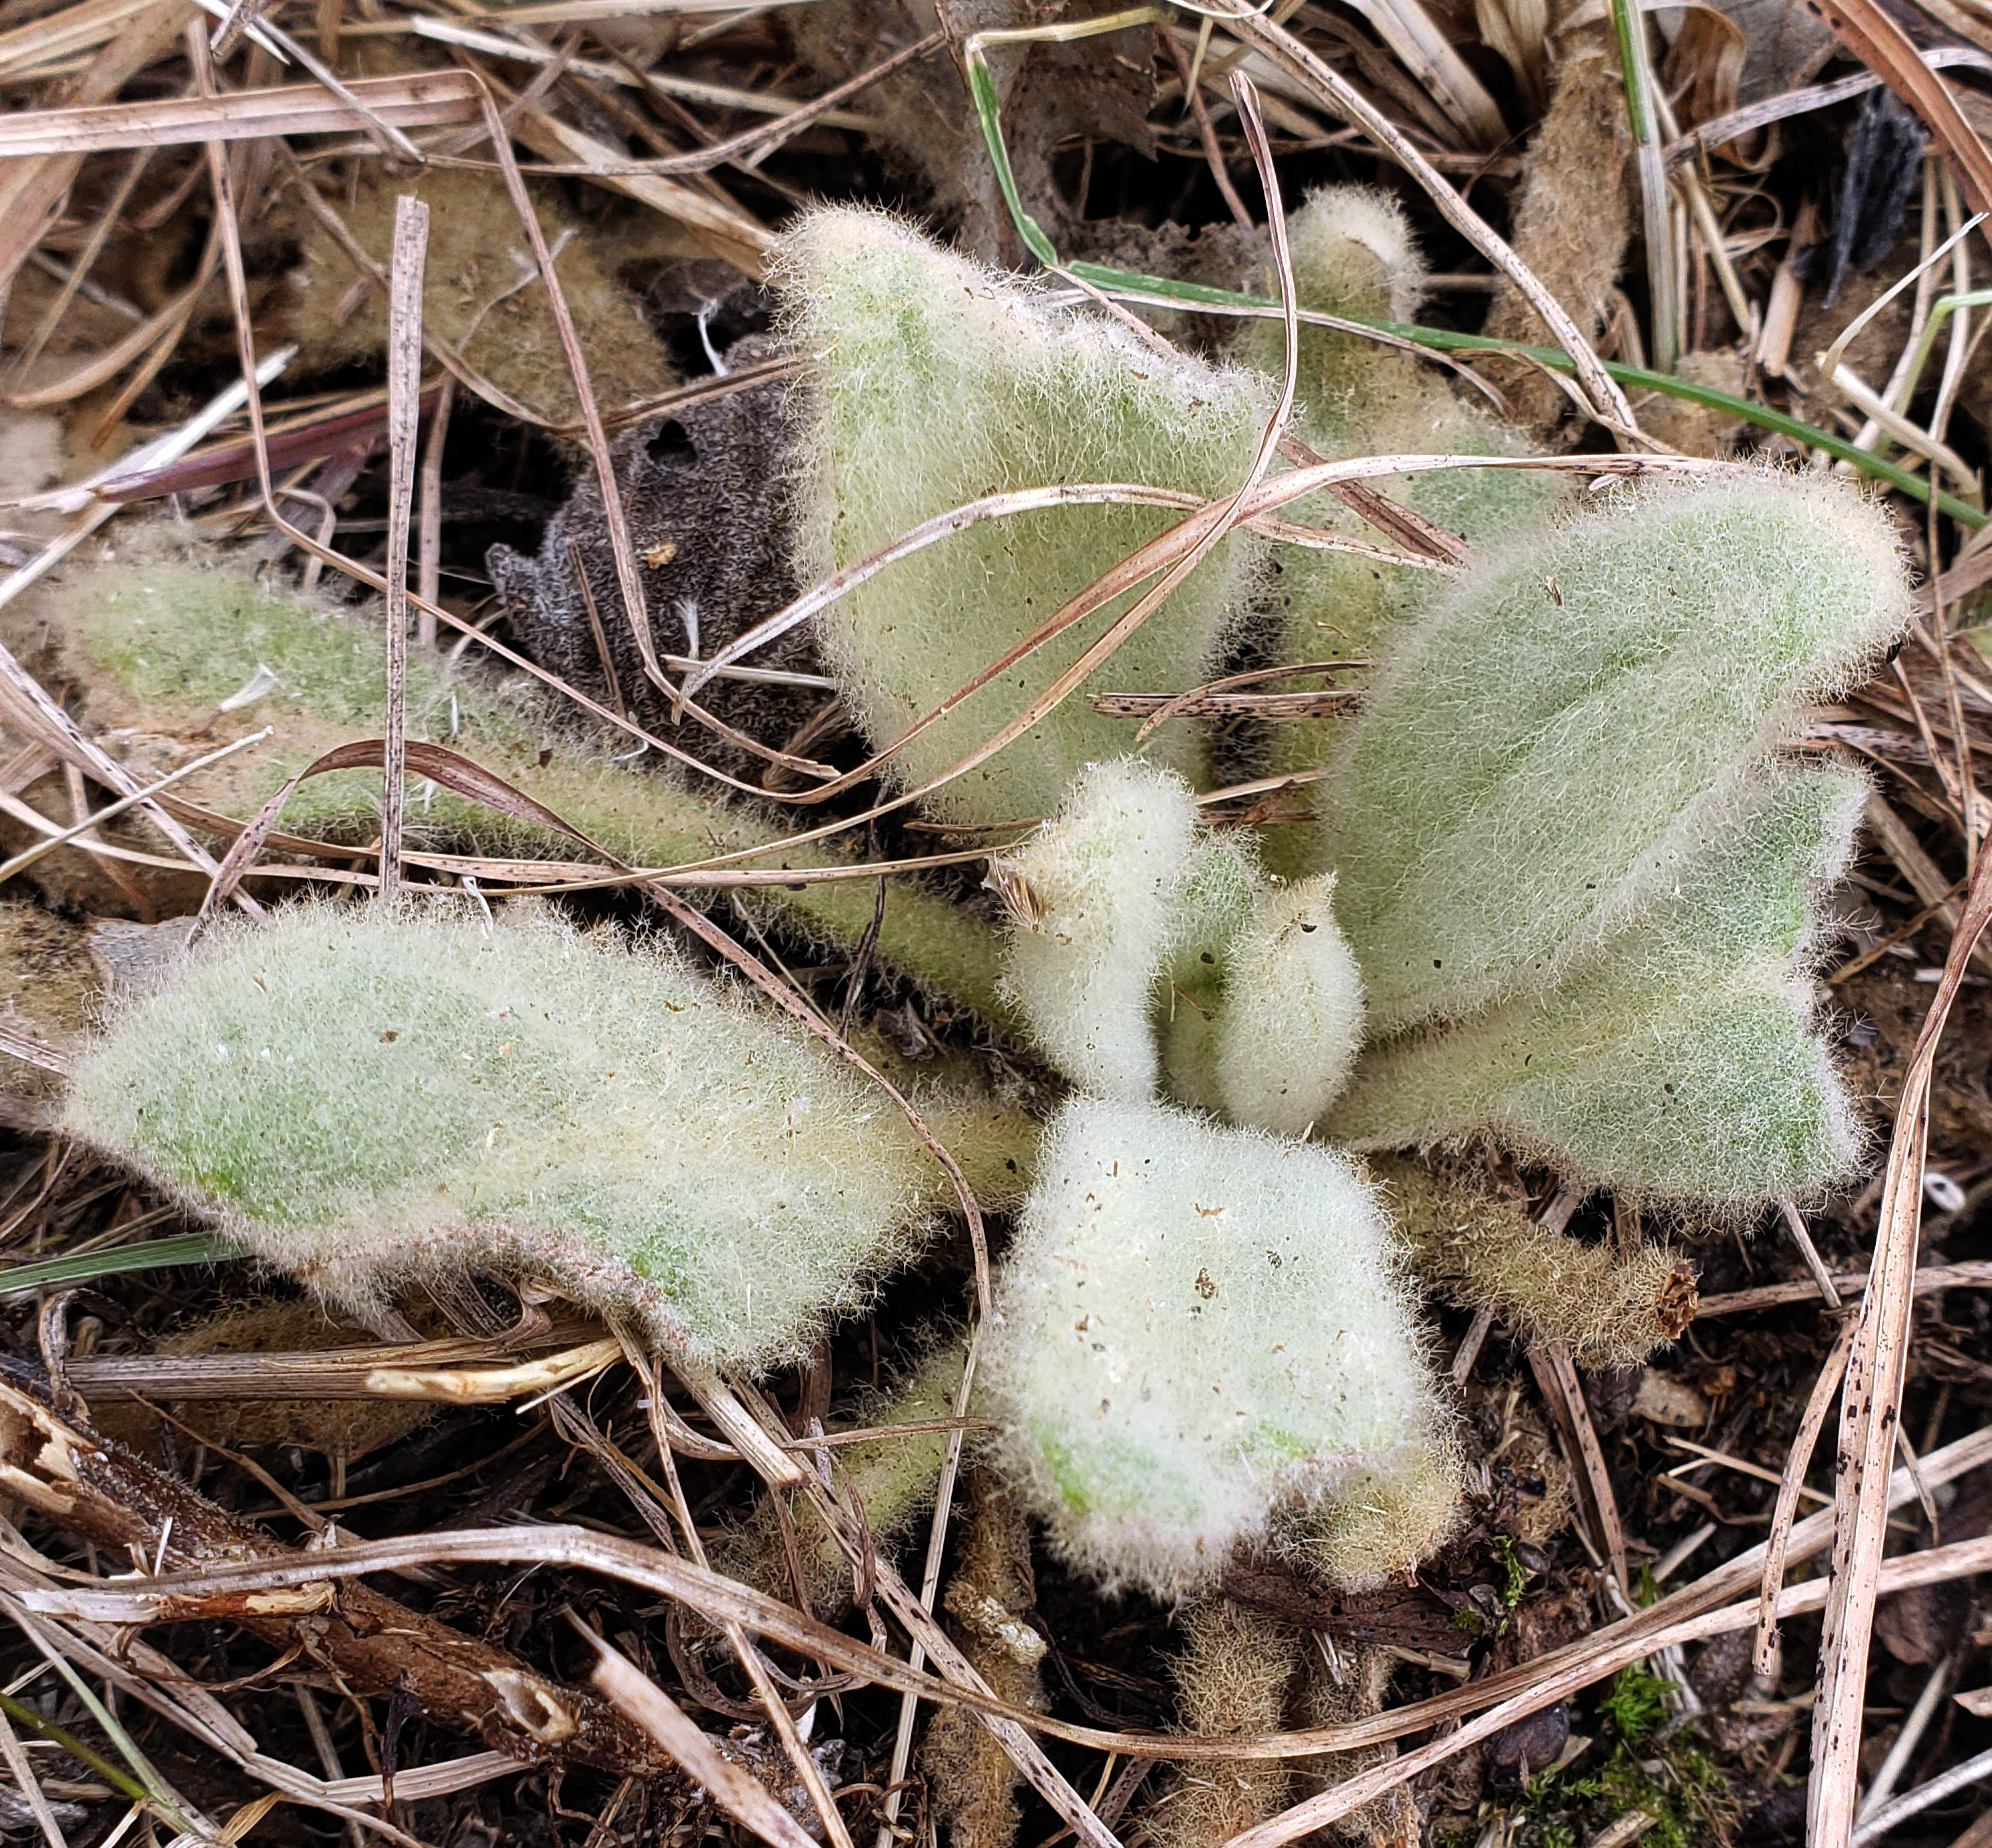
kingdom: Plantae
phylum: Tracheophyta
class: Magnoliopsida
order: Lamiales
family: Scrophulariaceae
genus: Verbascum
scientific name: Verbascum thapsus
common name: Common mullein
